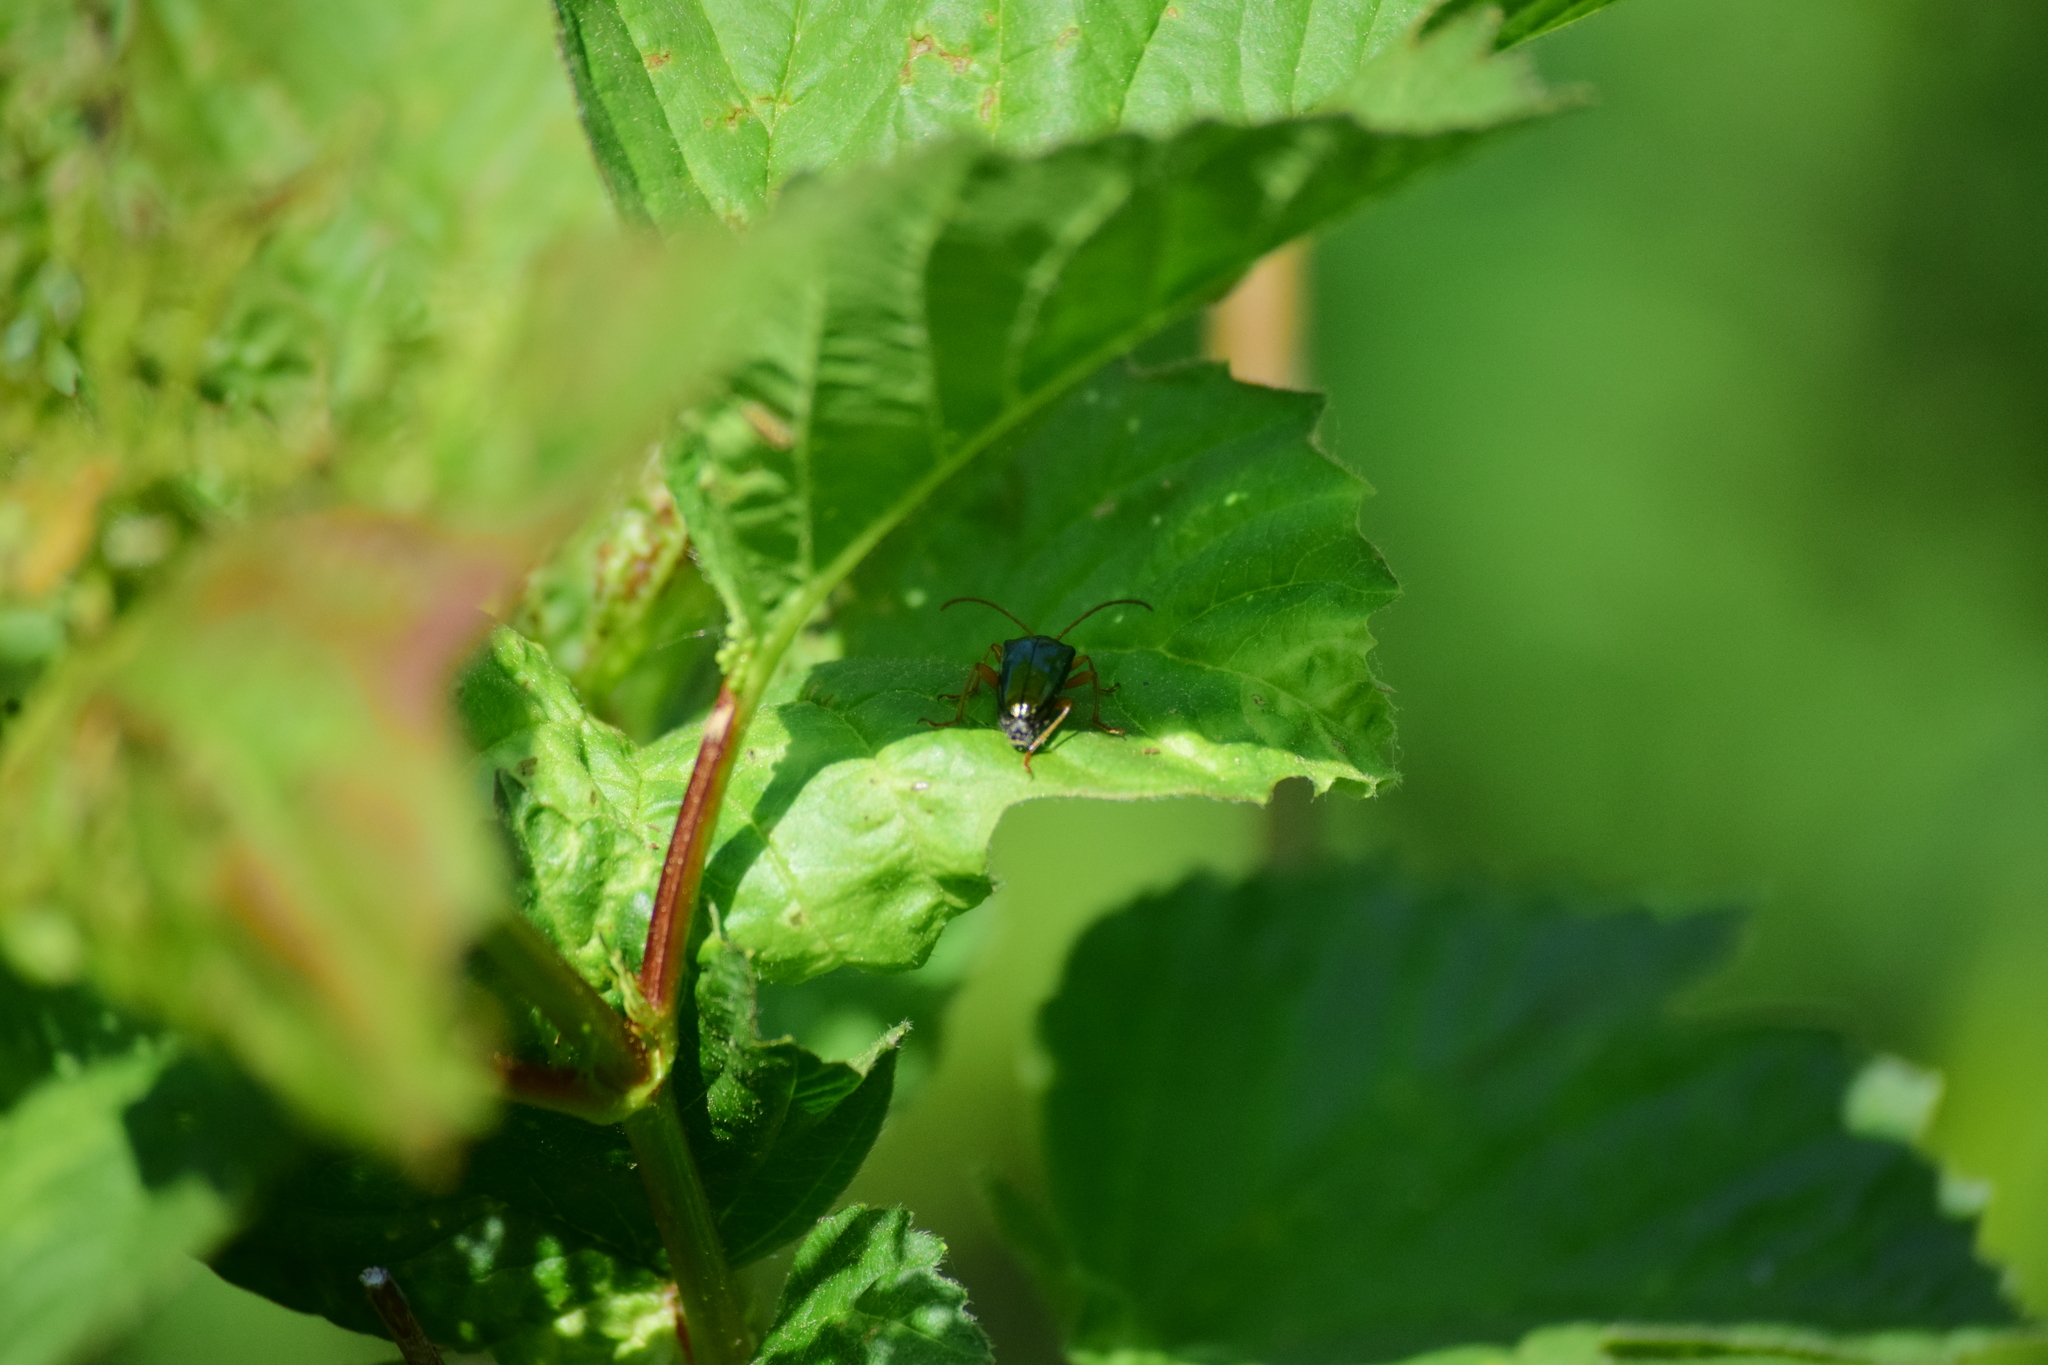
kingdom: Animalia
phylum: Arthropoda
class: Insecta
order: Coleoptera
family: Cerambycidae
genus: Gaurotes
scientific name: Gaurotes cyanipennis
